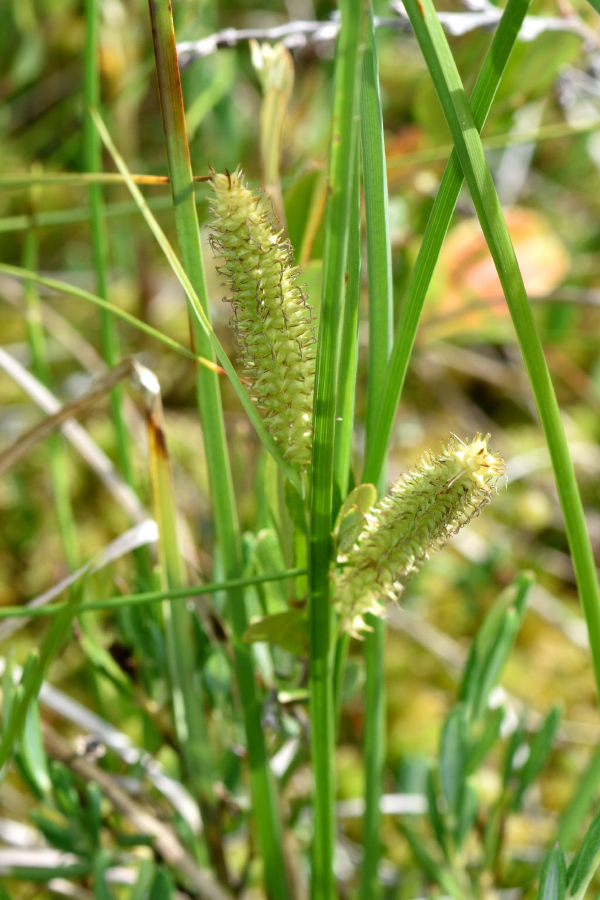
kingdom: Plantae
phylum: Tracheophyta
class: Liliopsida
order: Poales
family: Cyperaceae
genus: Carex
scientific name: Carex rostrata
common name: Bottle sedge
